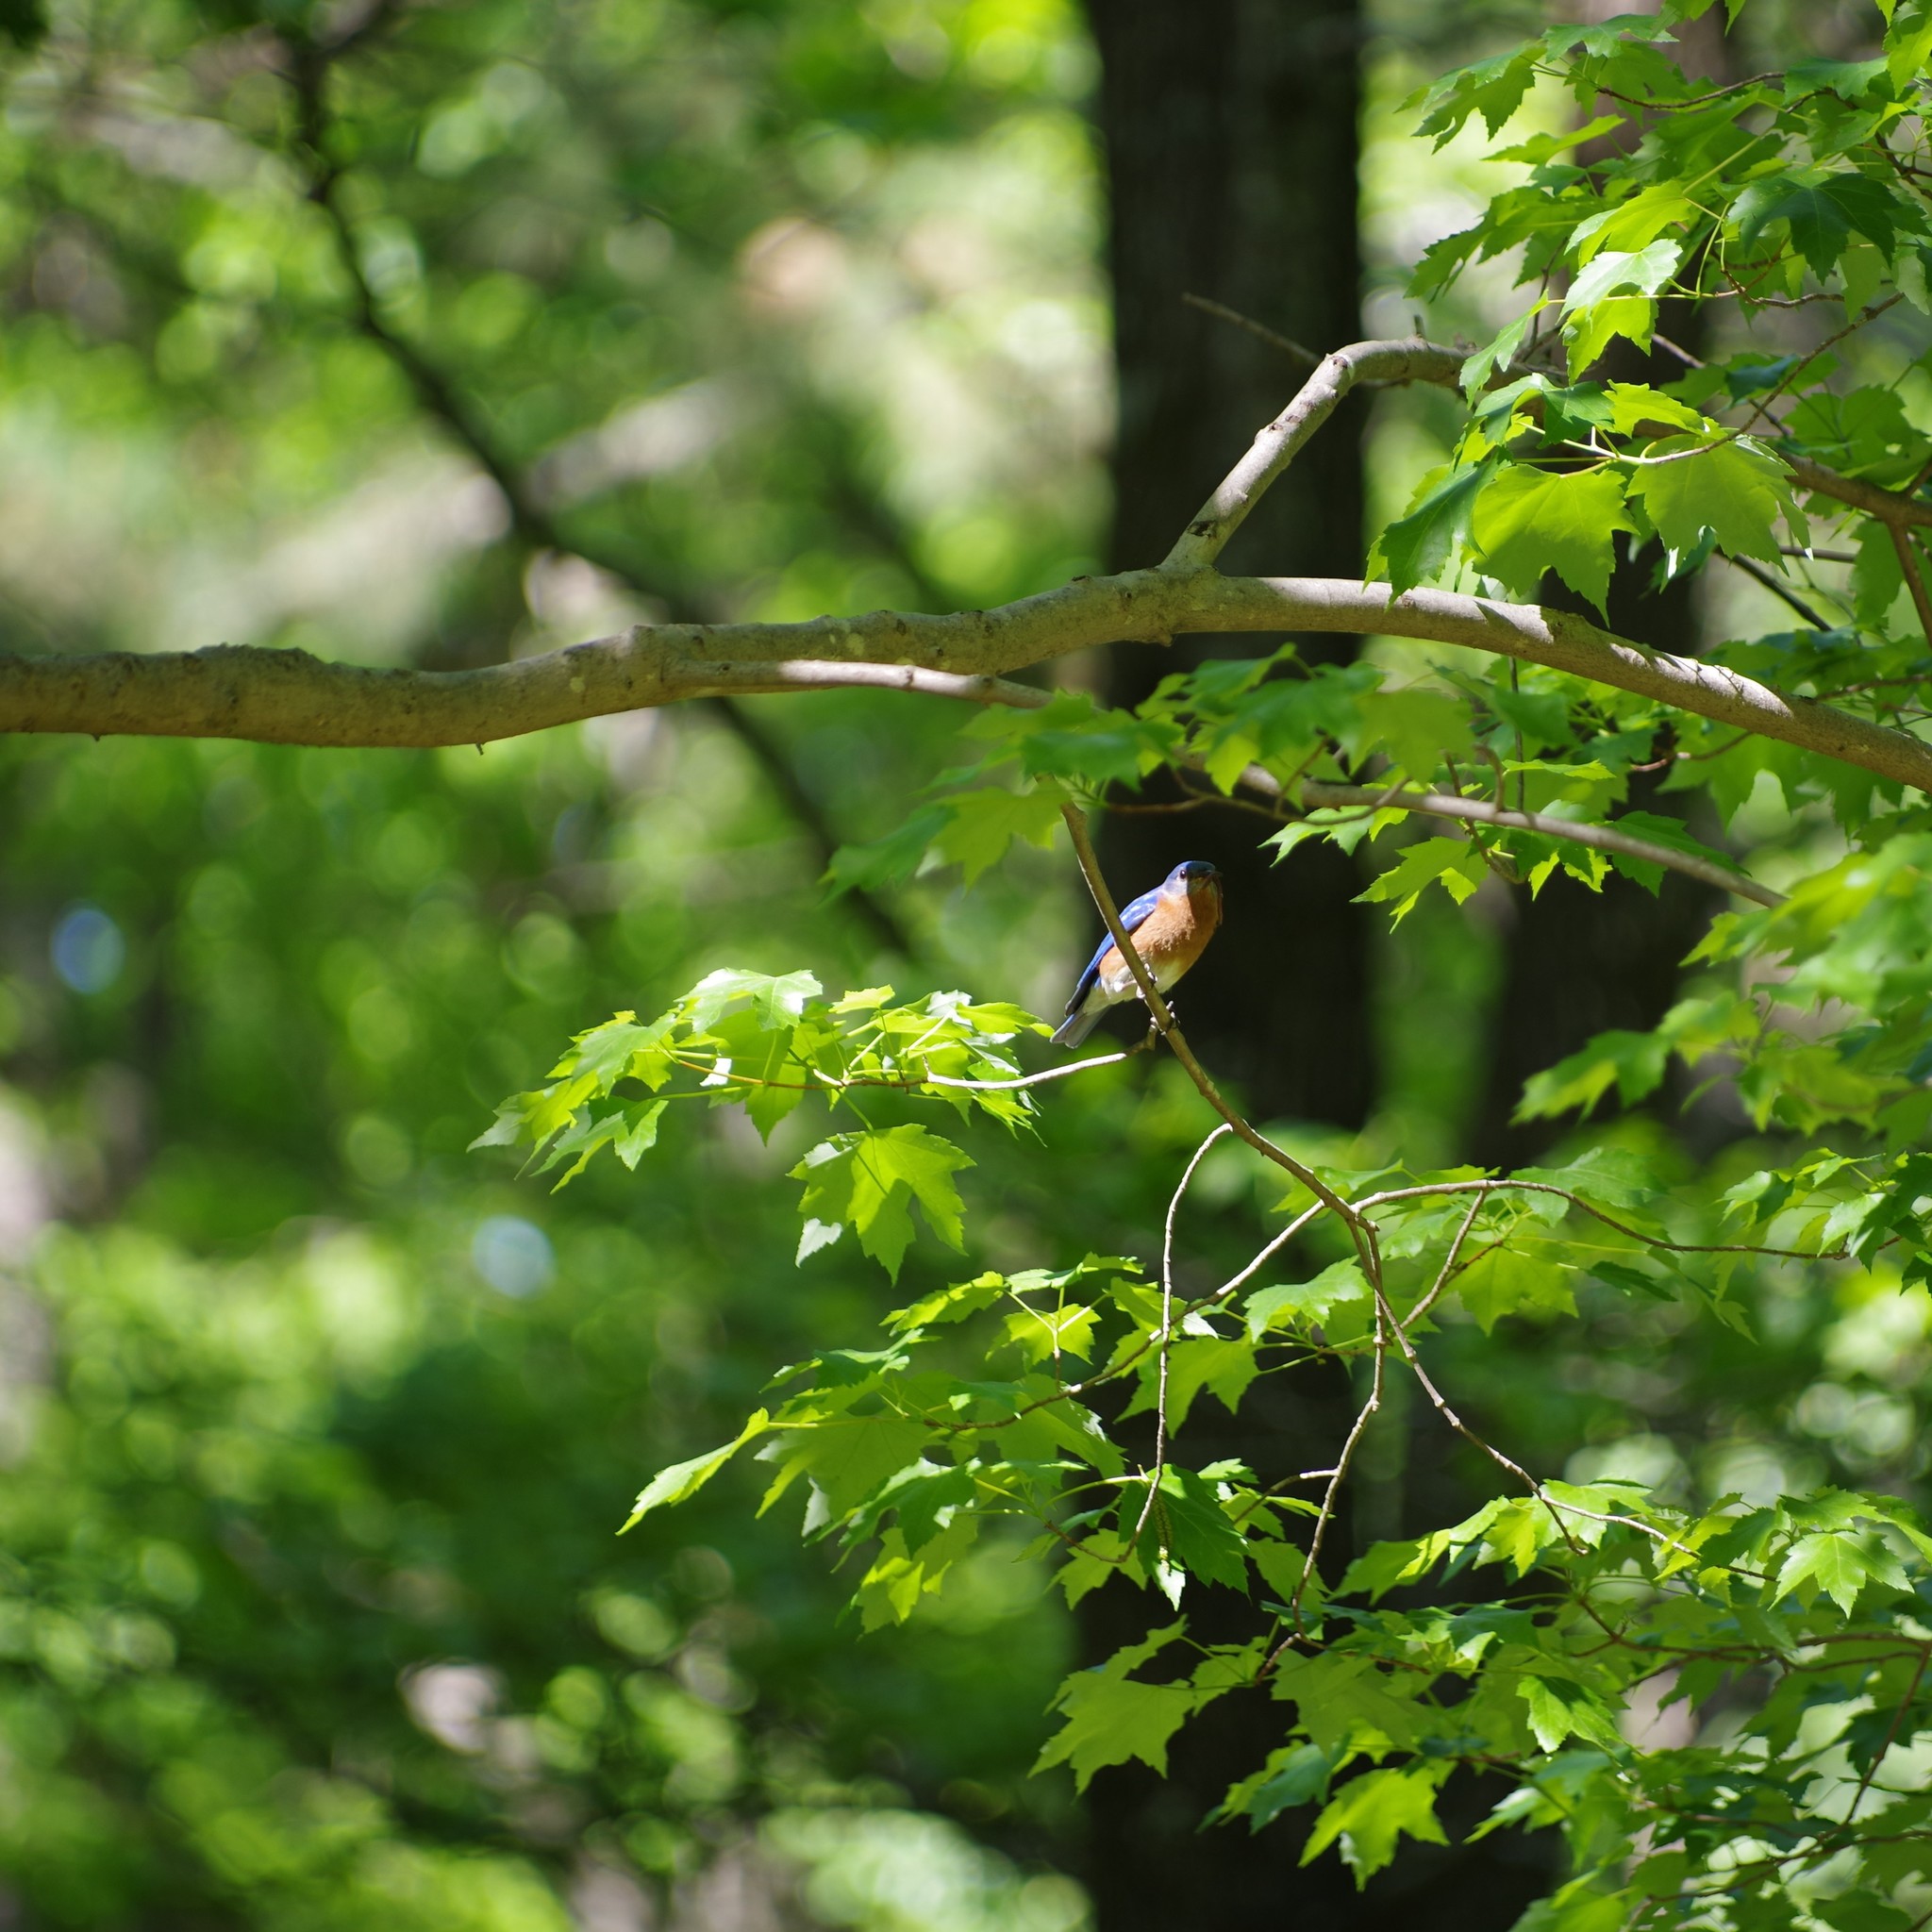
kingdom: Animalia
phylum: Chordata
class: Aves
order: Passeriformes
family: Turdidae
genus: Sialia
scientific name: Sialia sialis
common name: Eastern bluebird
